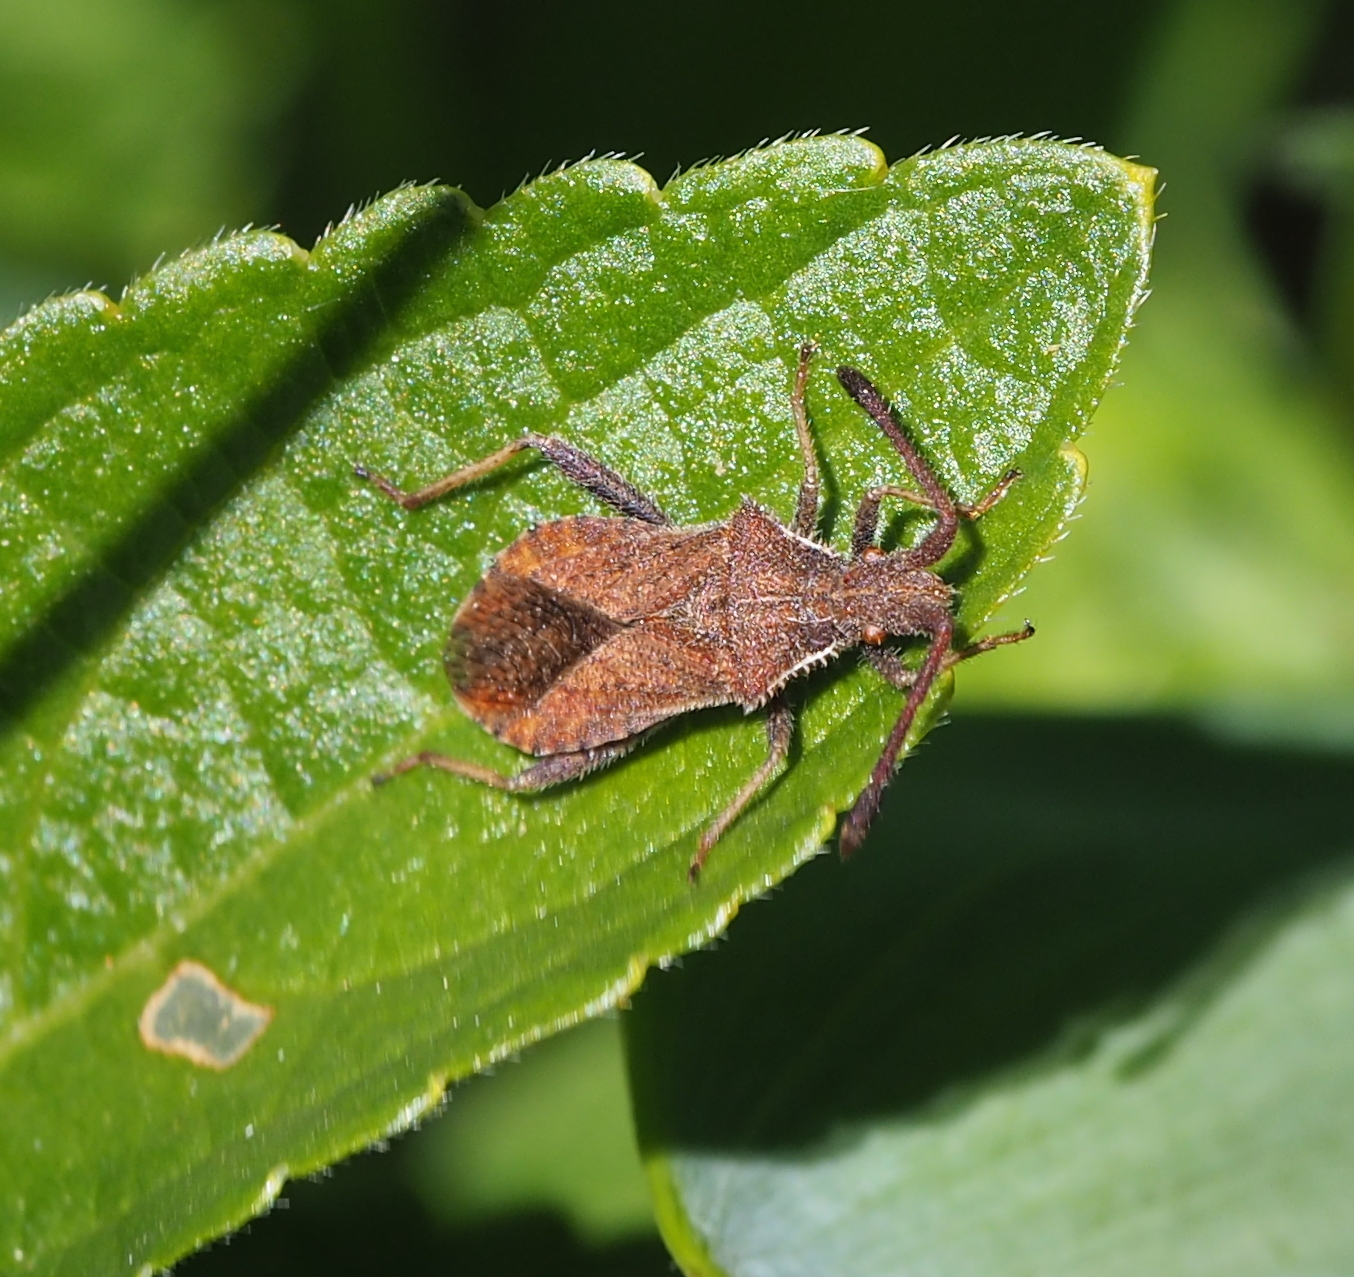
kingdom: Animalia
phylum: Arthropoda
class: Insecta
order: Hemiptera
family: Coreidae
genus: Coriomeris
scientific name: Coriomeris denticulatus
